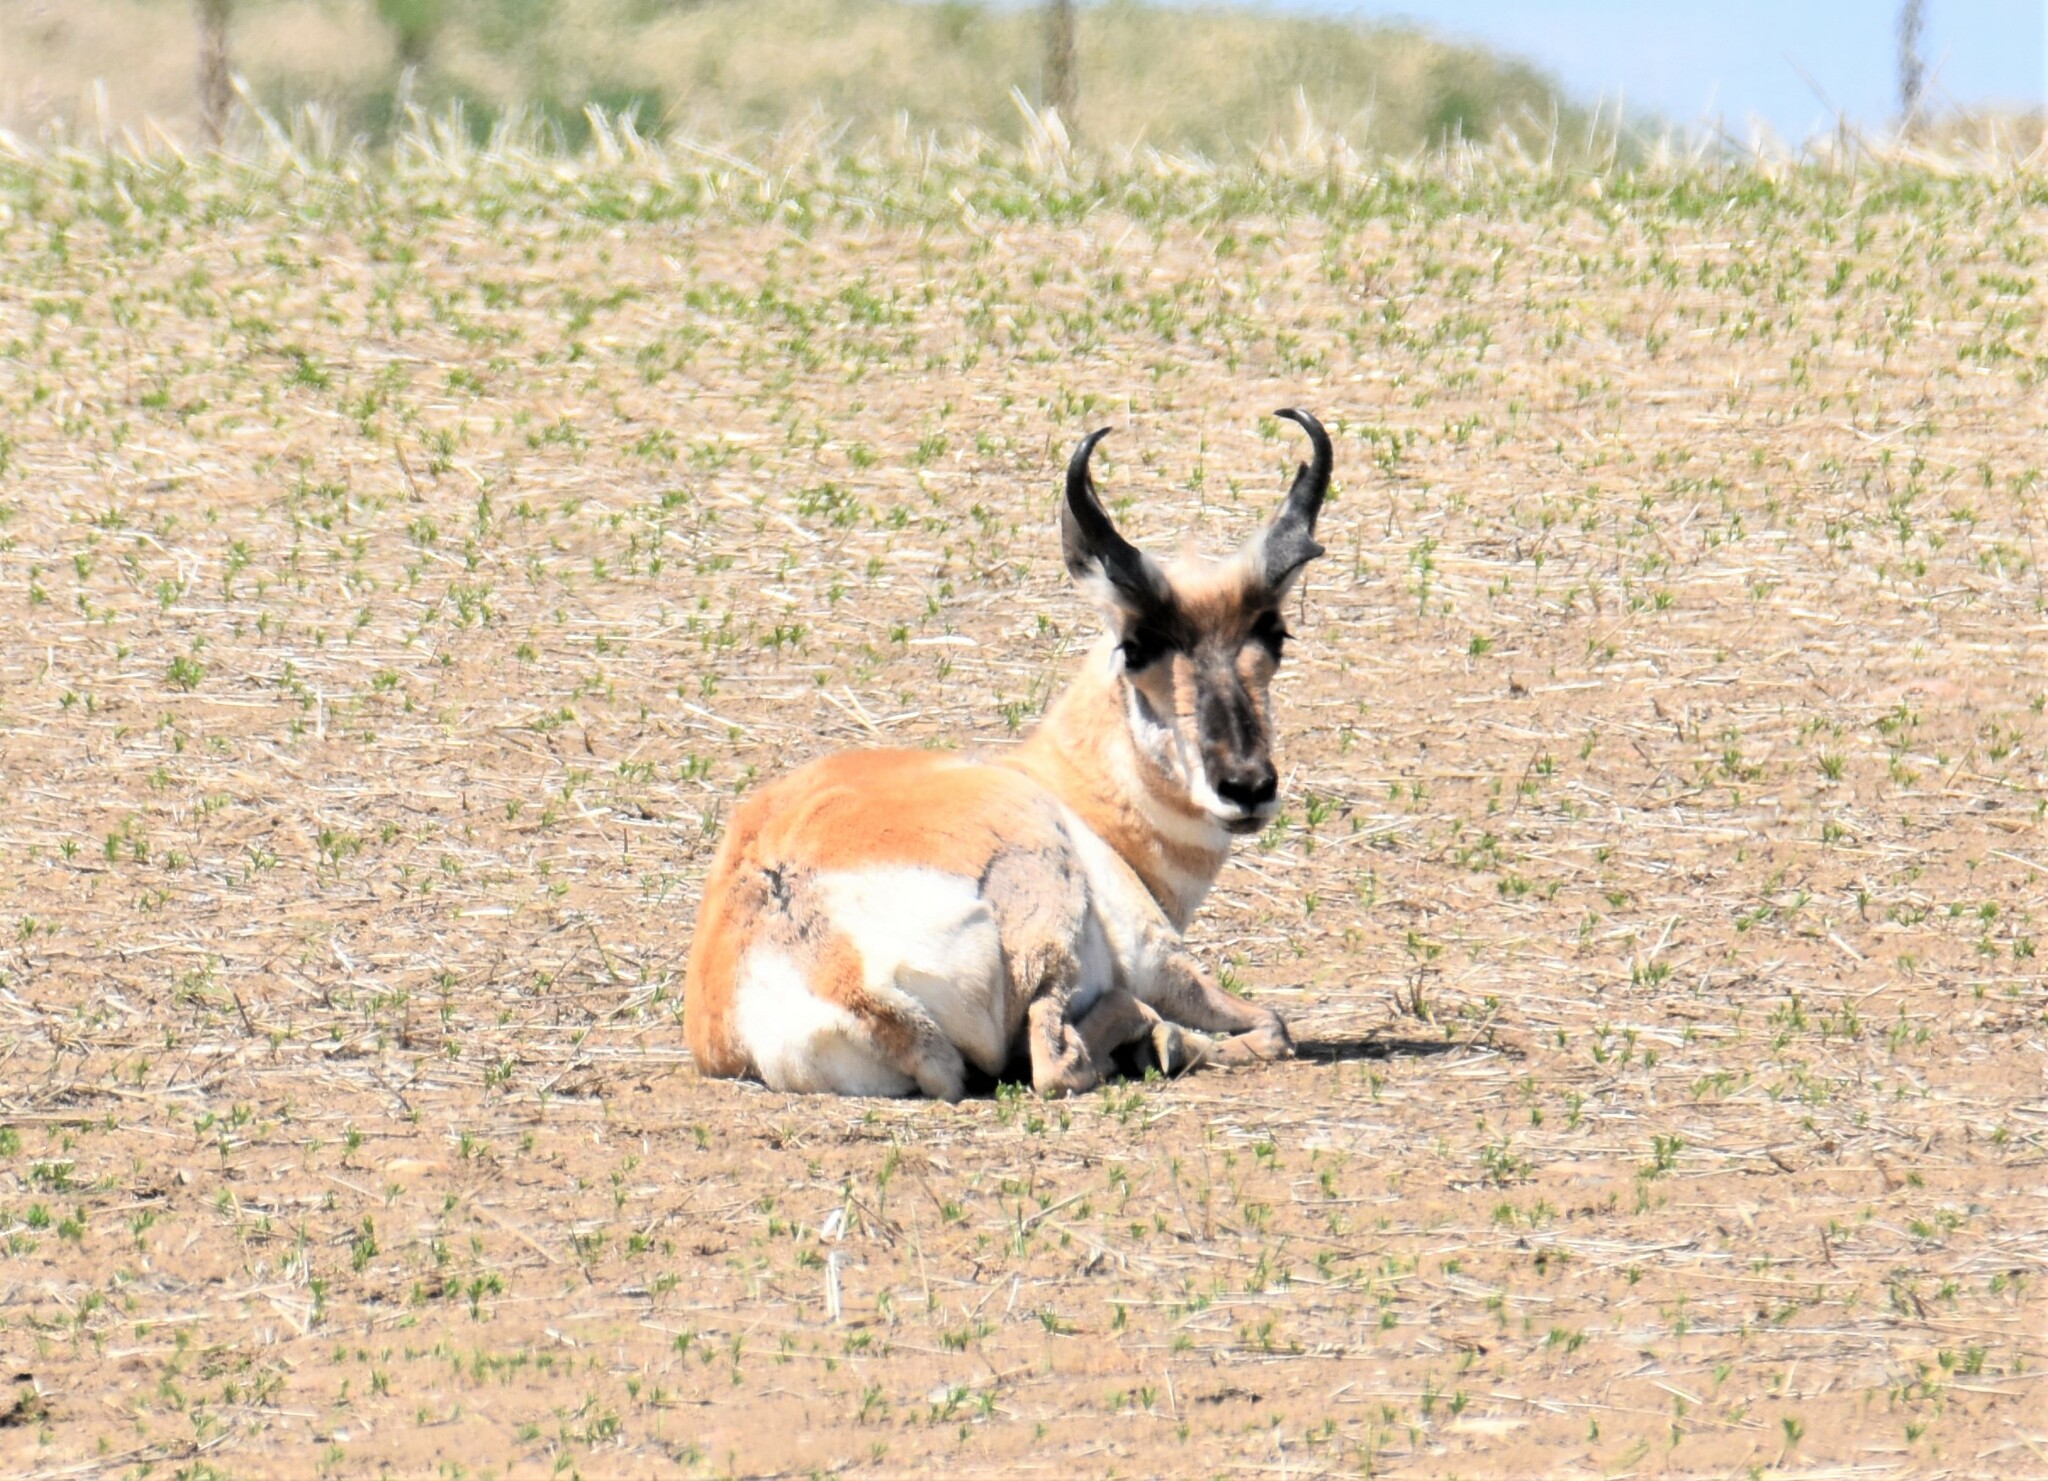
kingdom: Animalia
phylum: Chordata
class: Mammalia
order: Artiodactyla
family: Antilocapridae
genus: Antilocapra
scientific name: Antilocapra americana
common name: Pronghorn
